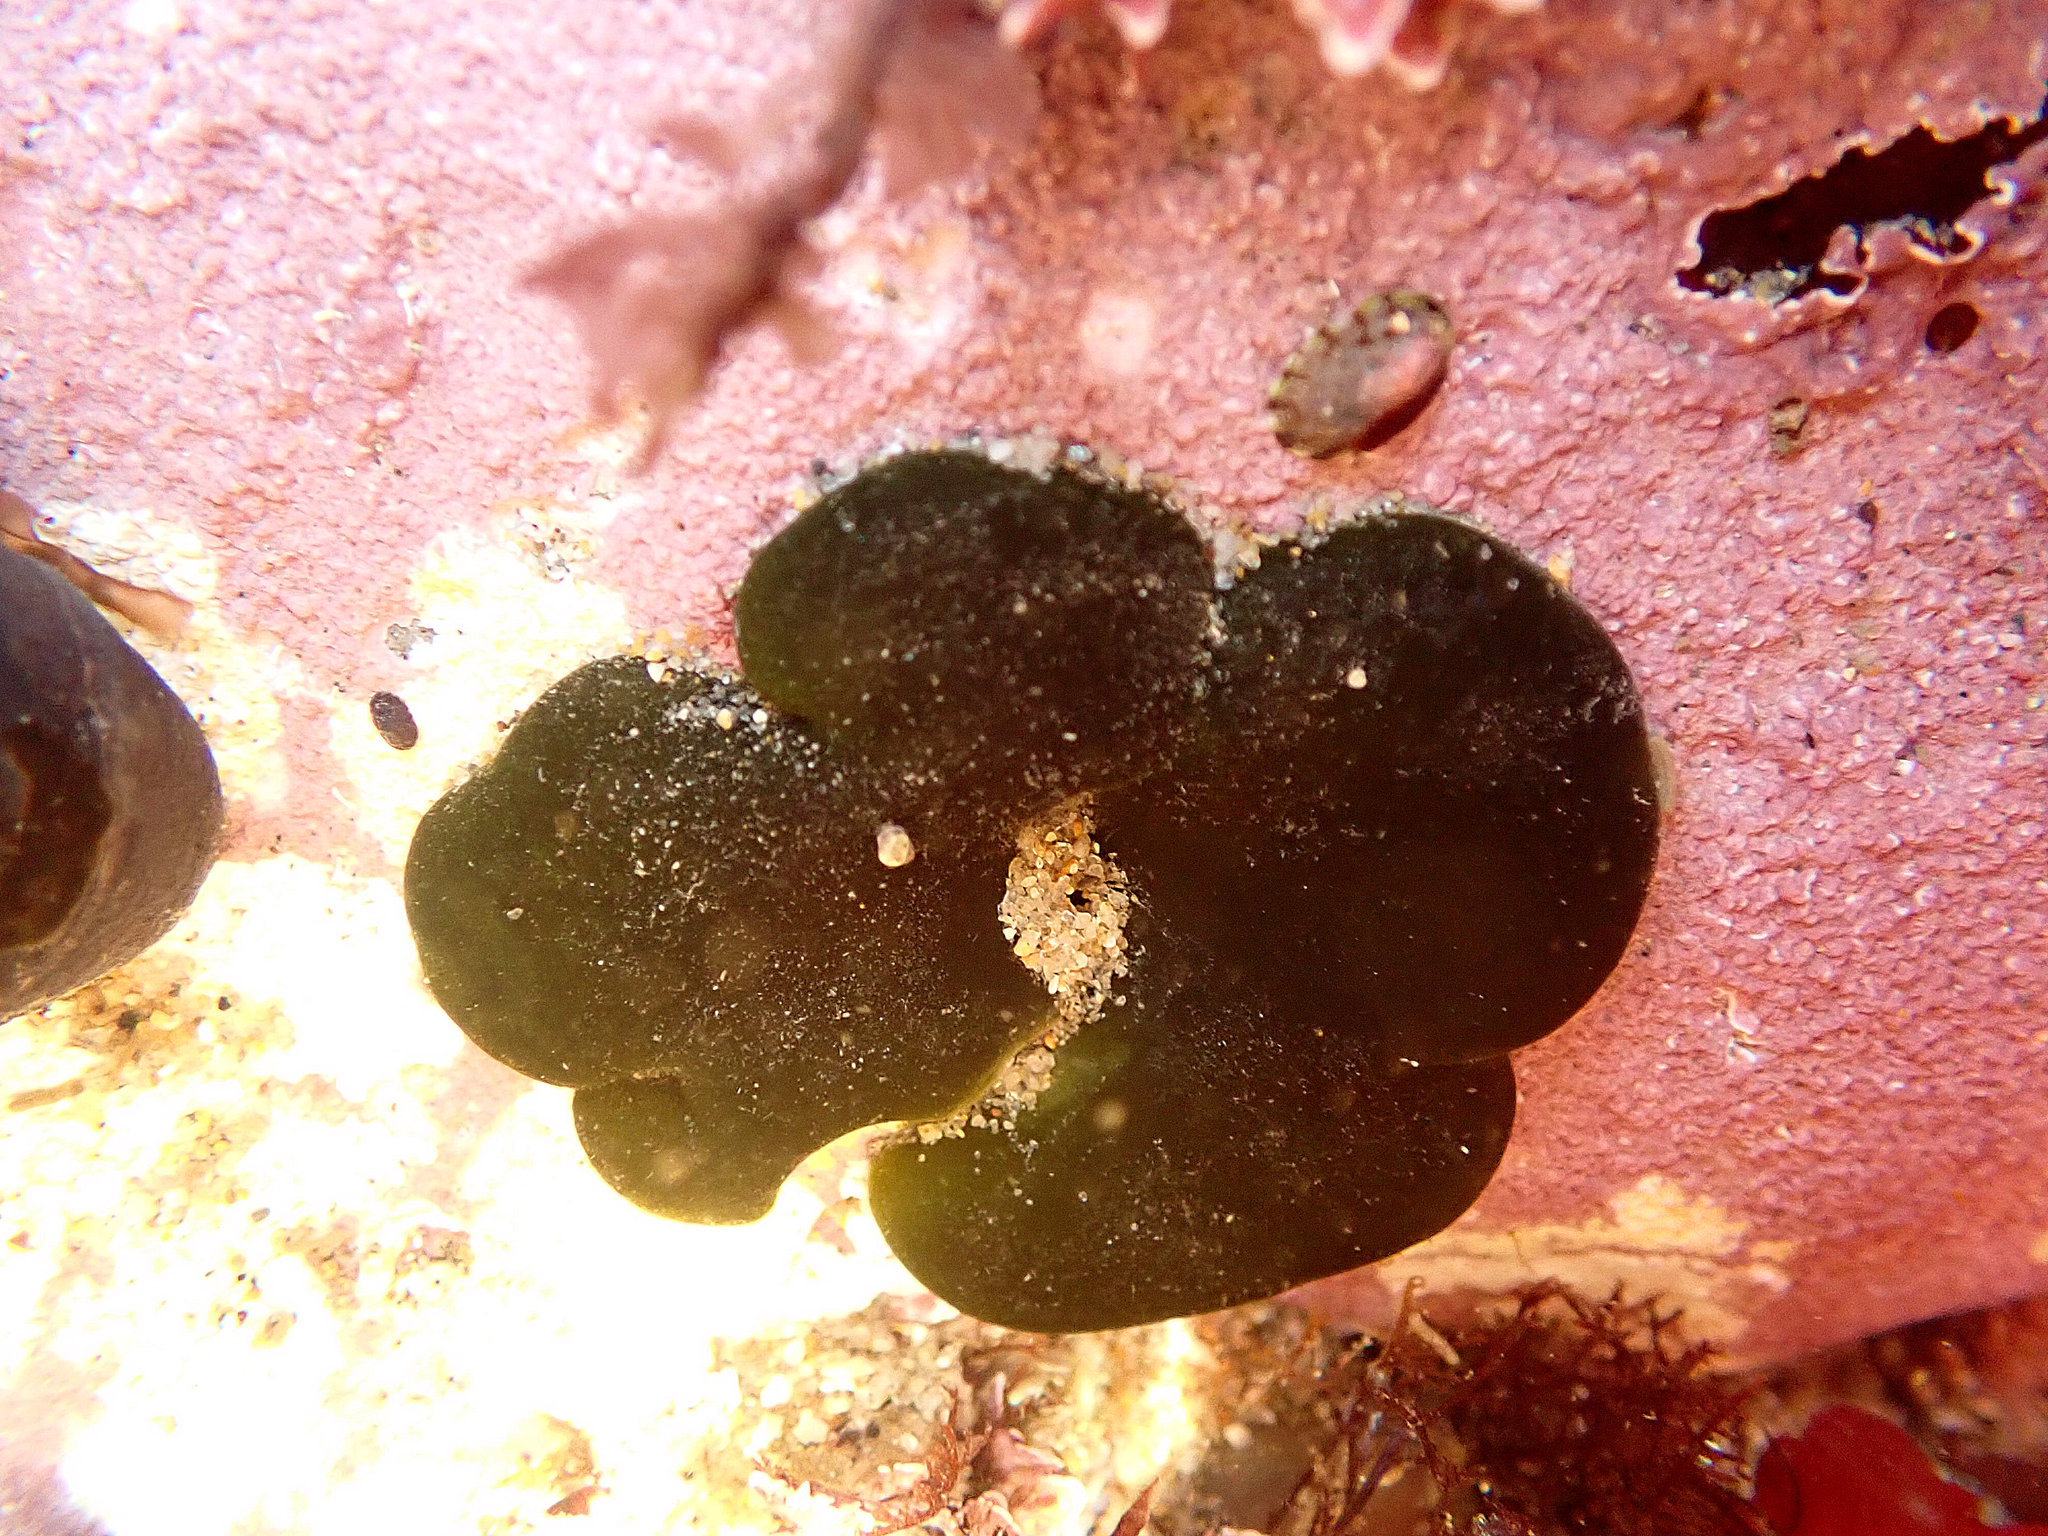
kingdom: Plantae
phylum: Chlorophyta
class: Ulvophyceae
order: Bryopsidales
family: Codiaceae
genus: Codium
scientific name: Codium setchellii
